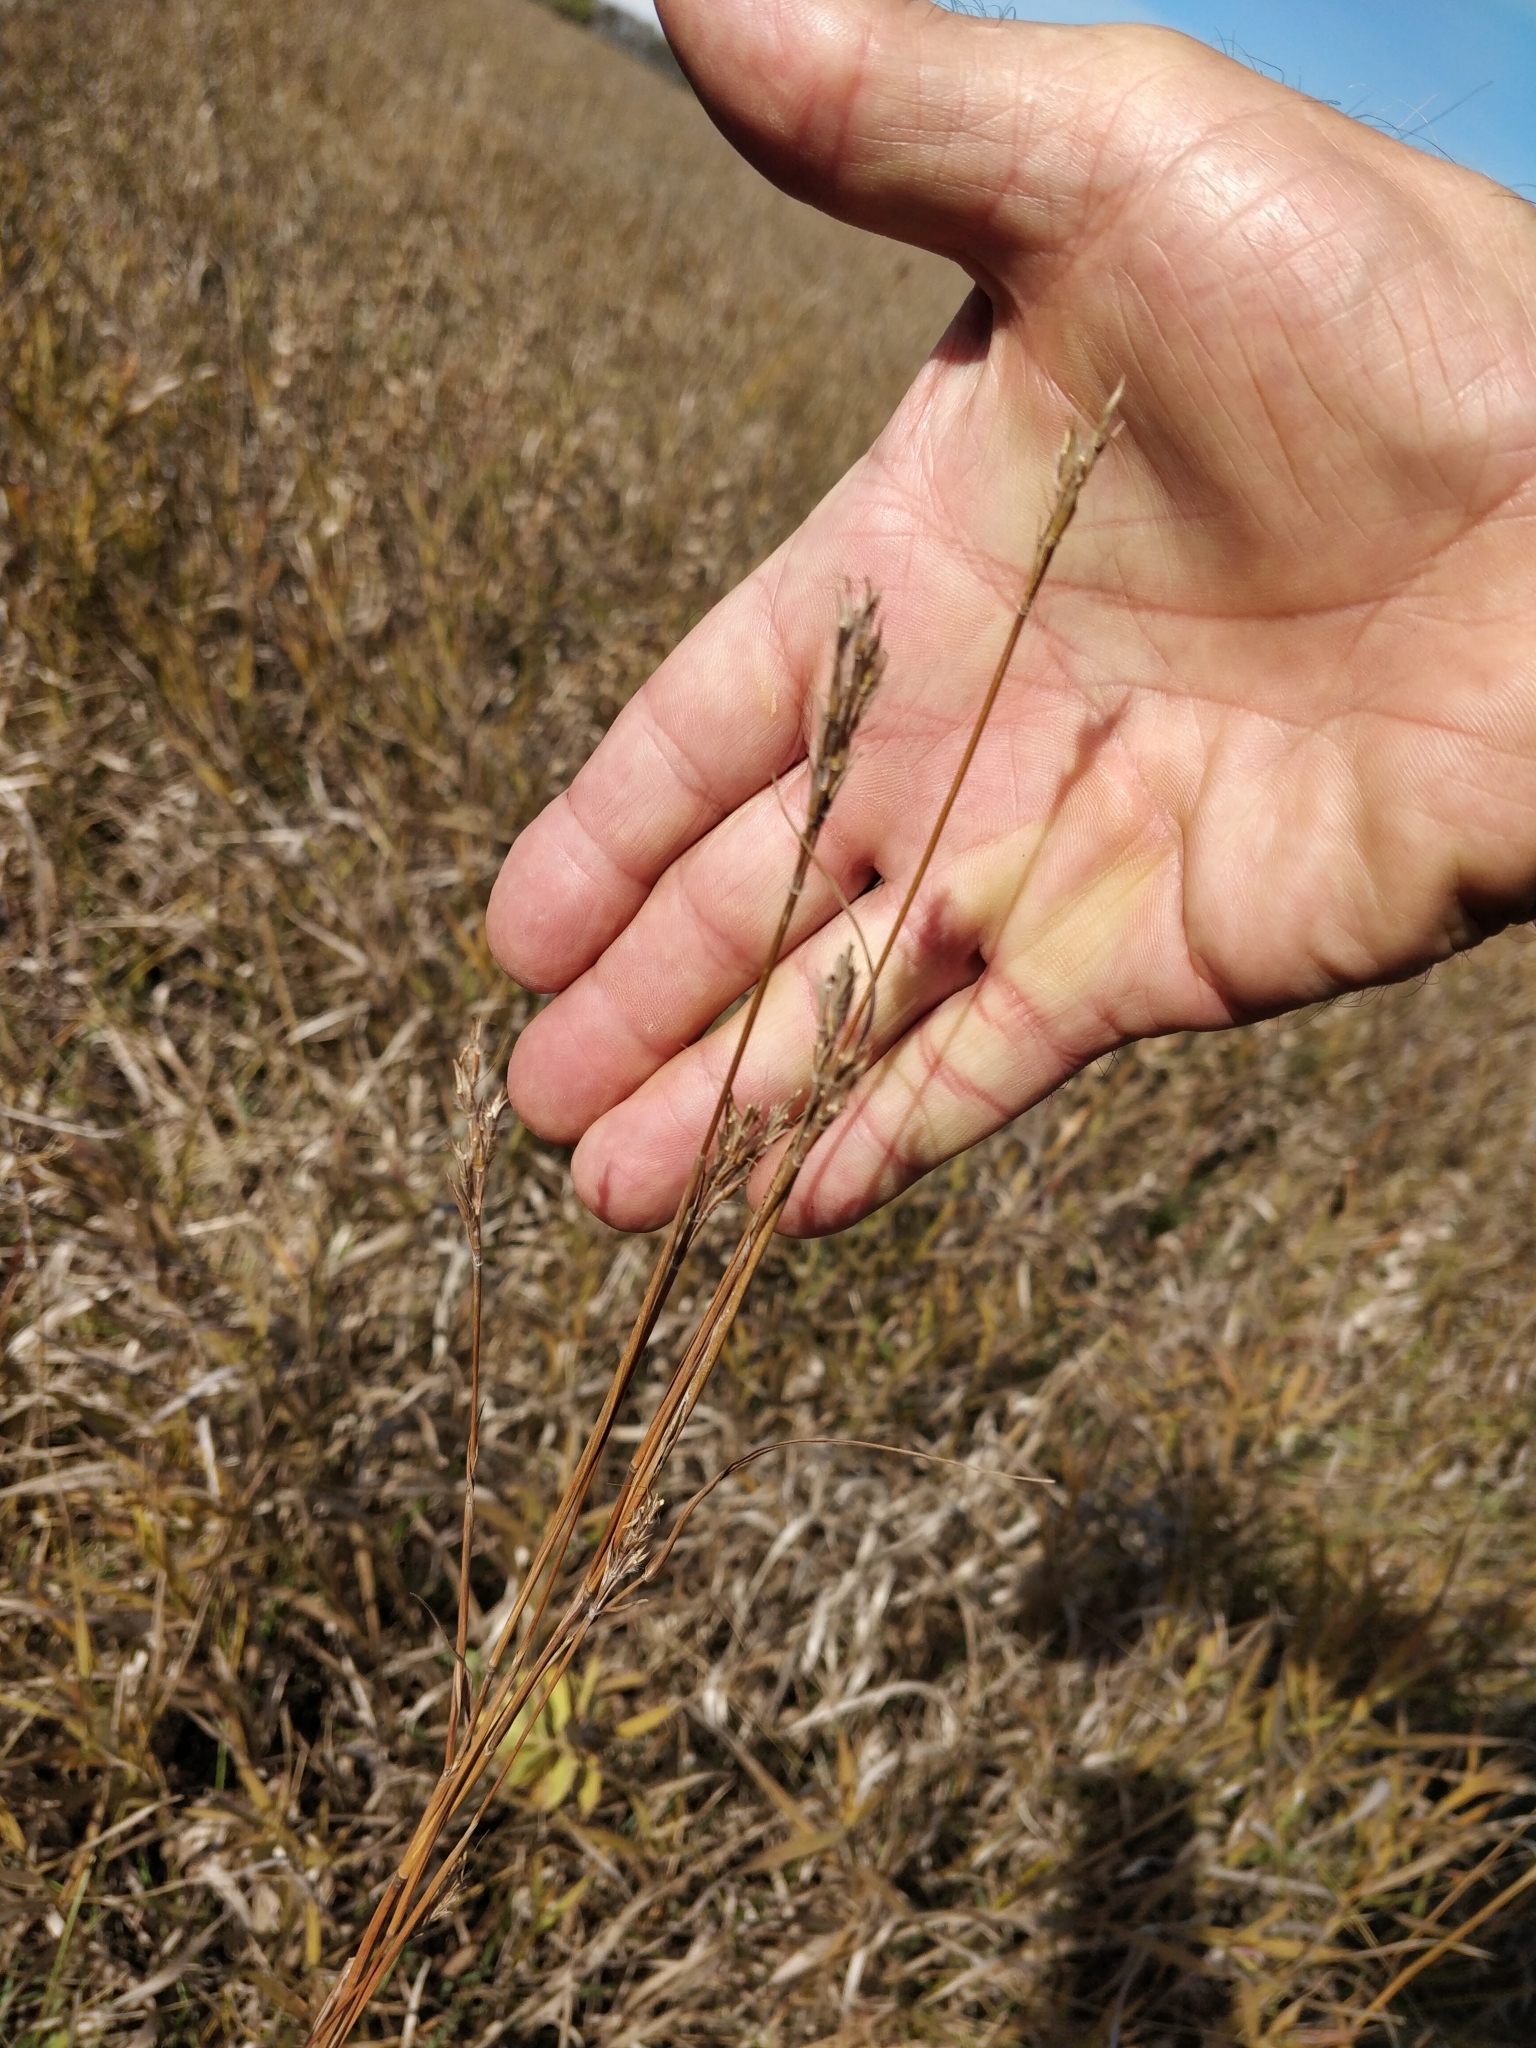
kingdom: Plantae
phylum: Tracheophyta
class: Liliopsida
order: Poales
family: Poaceae
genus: Andropogon
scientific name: Andropogon gerardi
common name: Big bluestem
